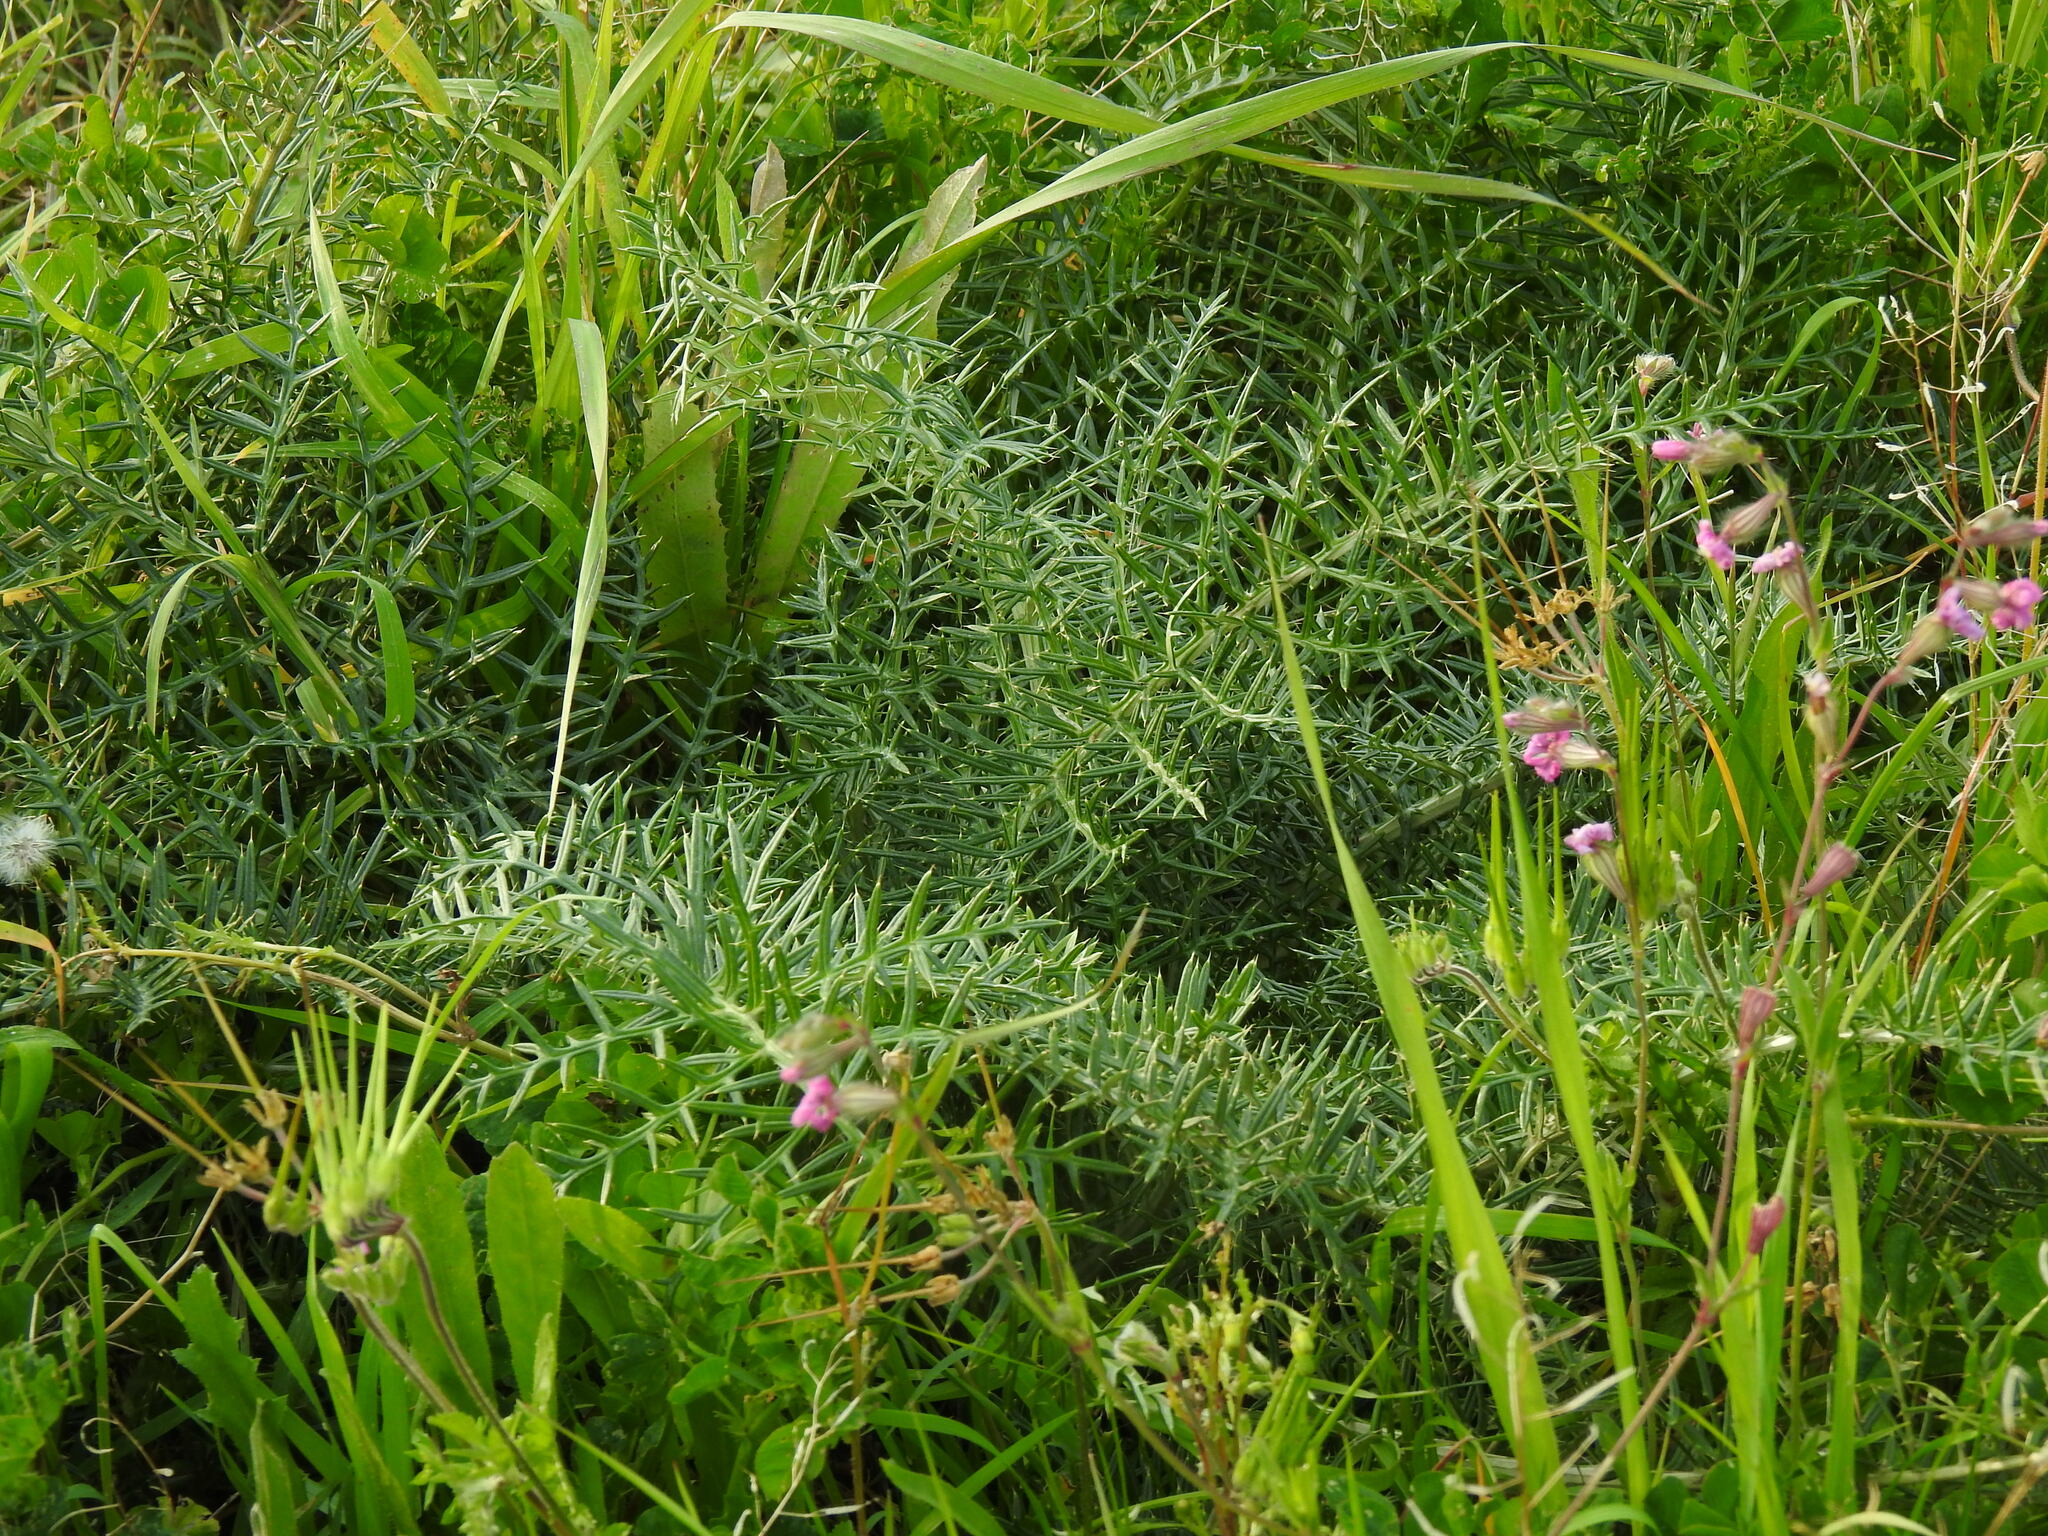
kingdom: Plantae
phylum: Tracheophyta
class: Magnoliopsida
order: Asterales
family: Asteraceae
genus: Cynara
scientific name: Cynara humilis
